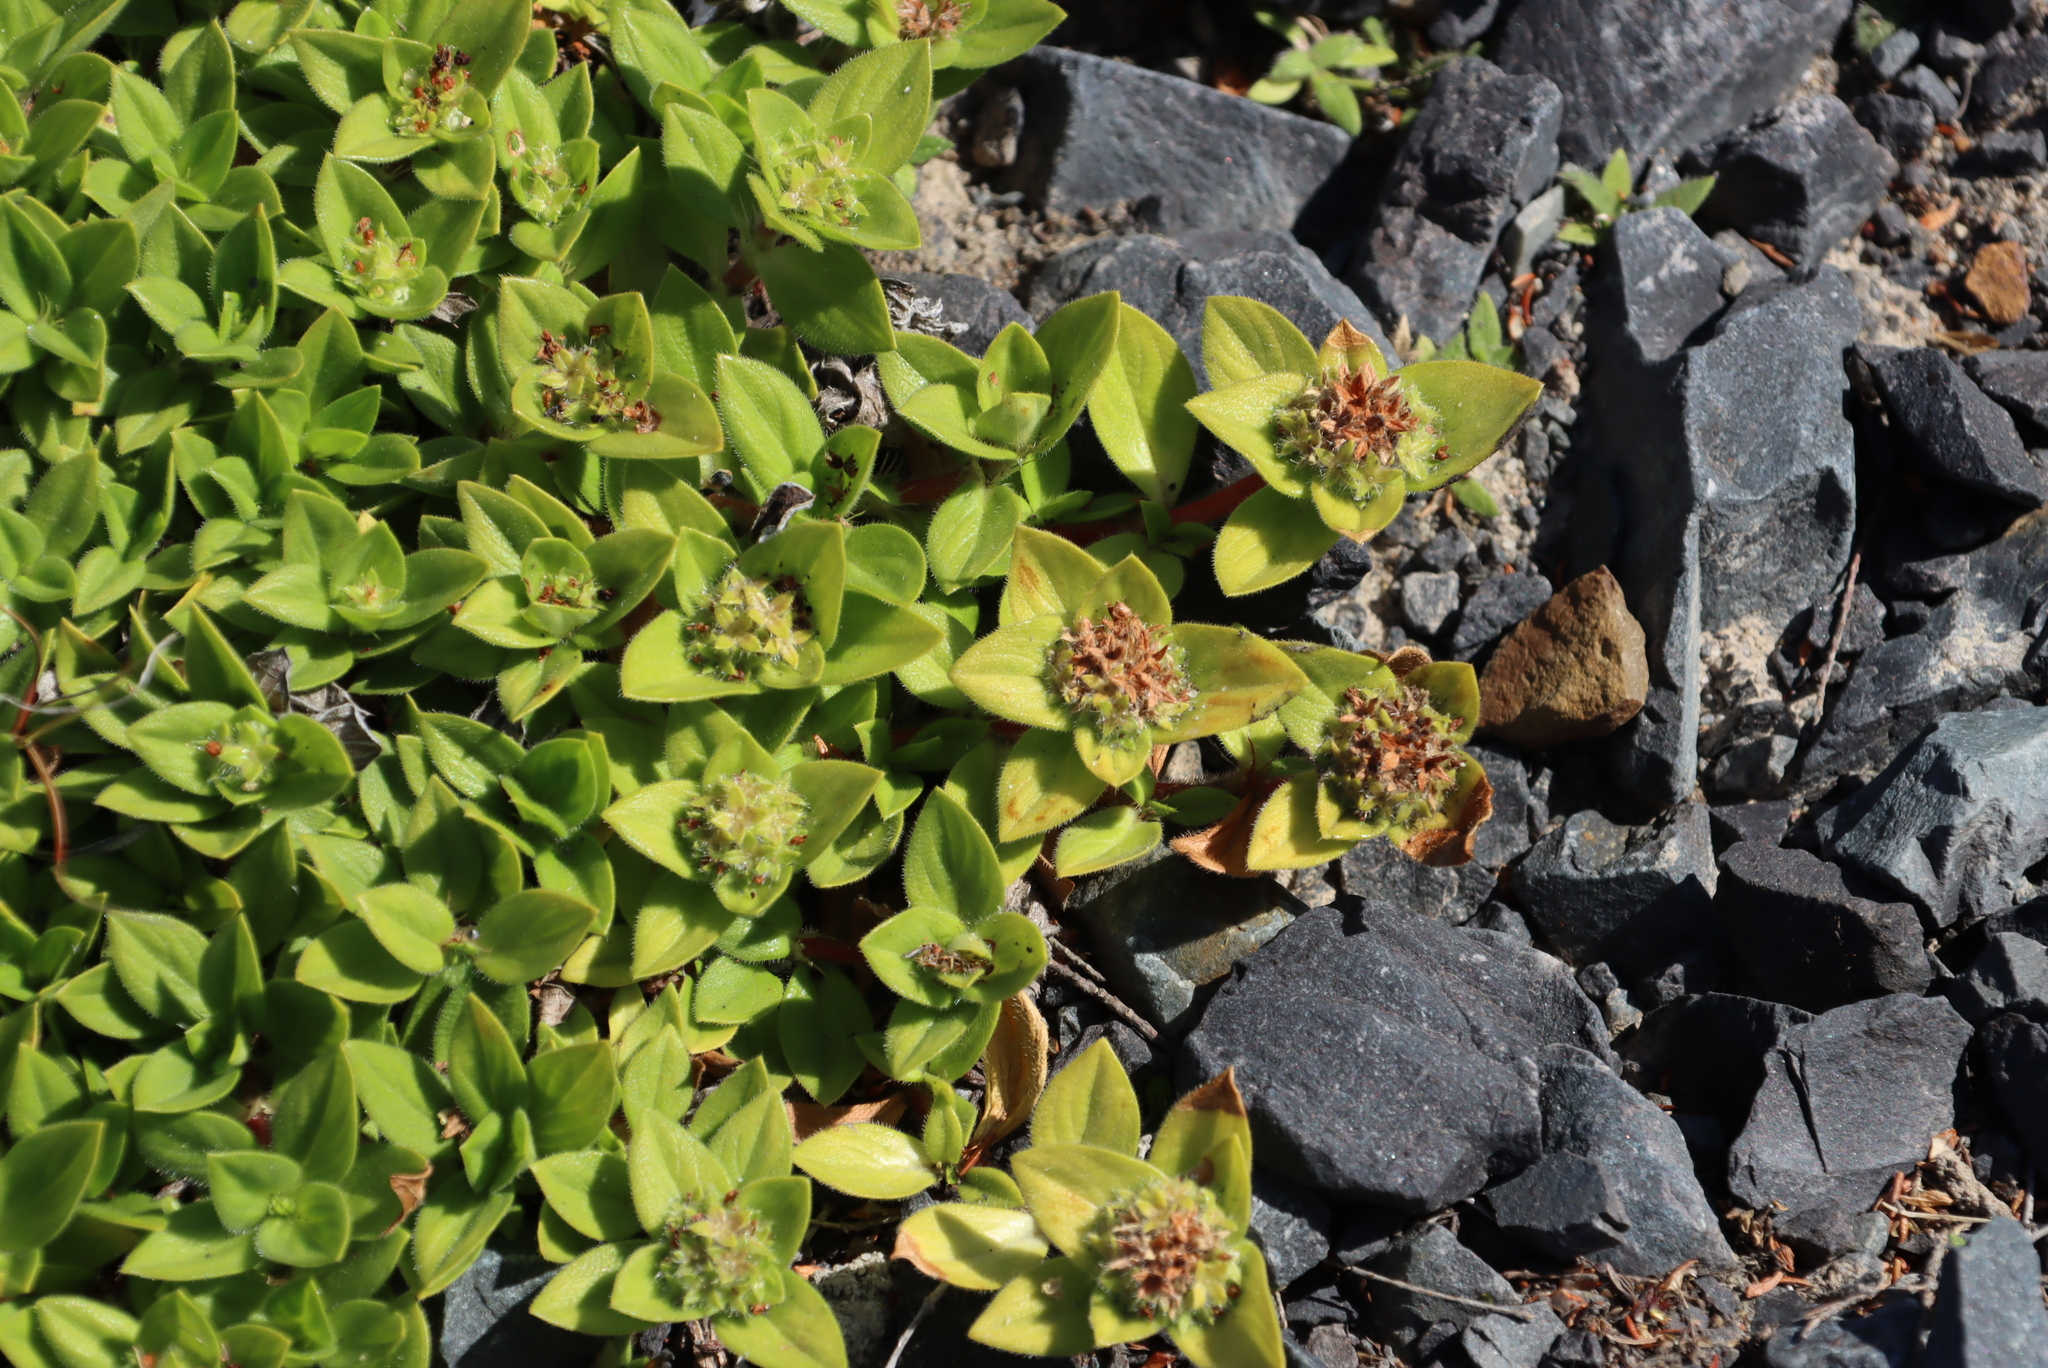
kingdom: Plantae
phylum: Tracheophyta
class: Magnoliopsida
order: Gentianales
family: Rubiaceae
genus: Richardia
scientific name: Richardia brasiliensis
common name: Tropical mexican clover
